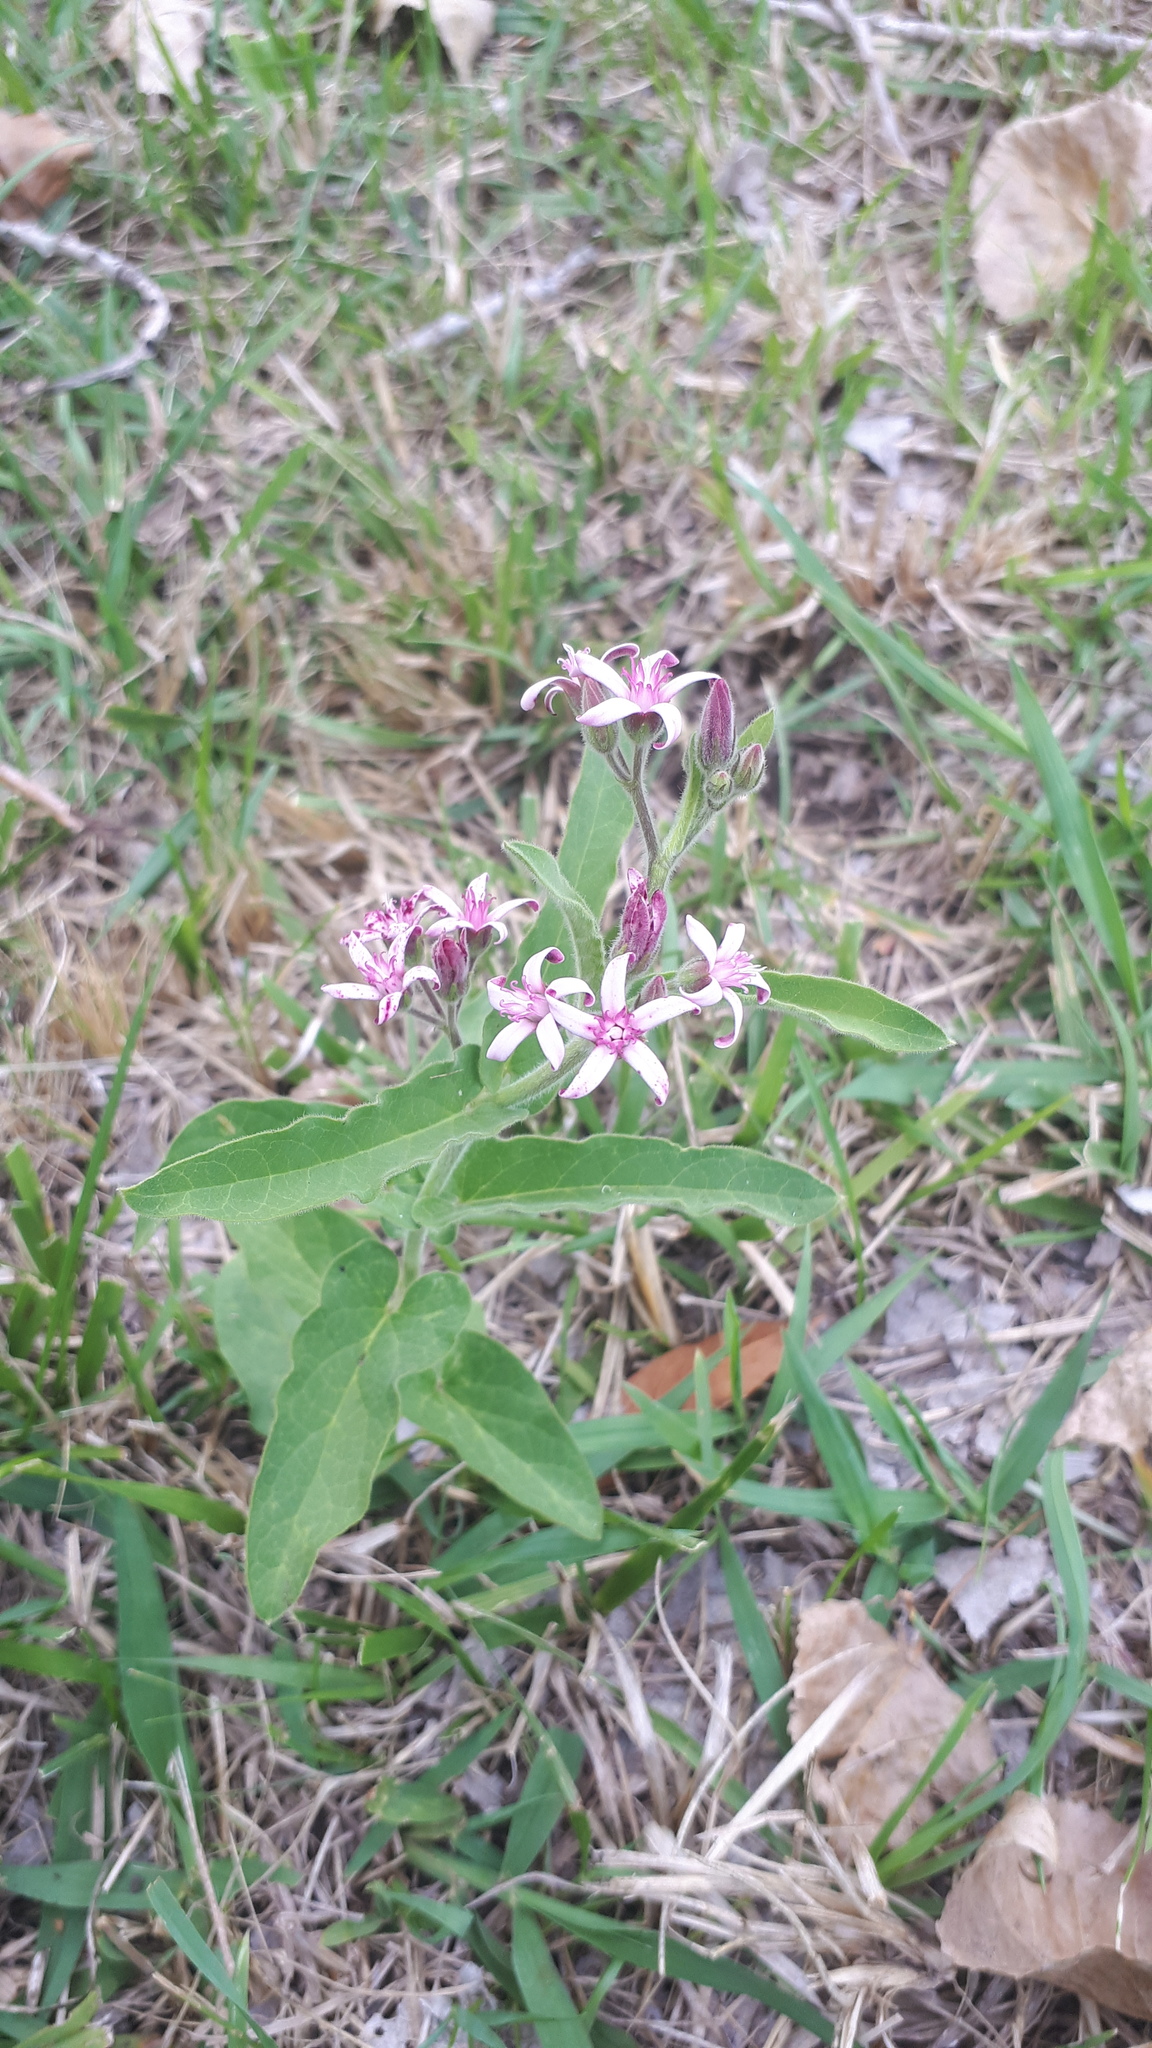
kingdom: Plantae
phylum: Tracheophyta
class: Magnoliopsida
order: Gentianales
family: Apocynaceae
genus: Oxypetalum
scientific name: Oxypetalum solanoides
